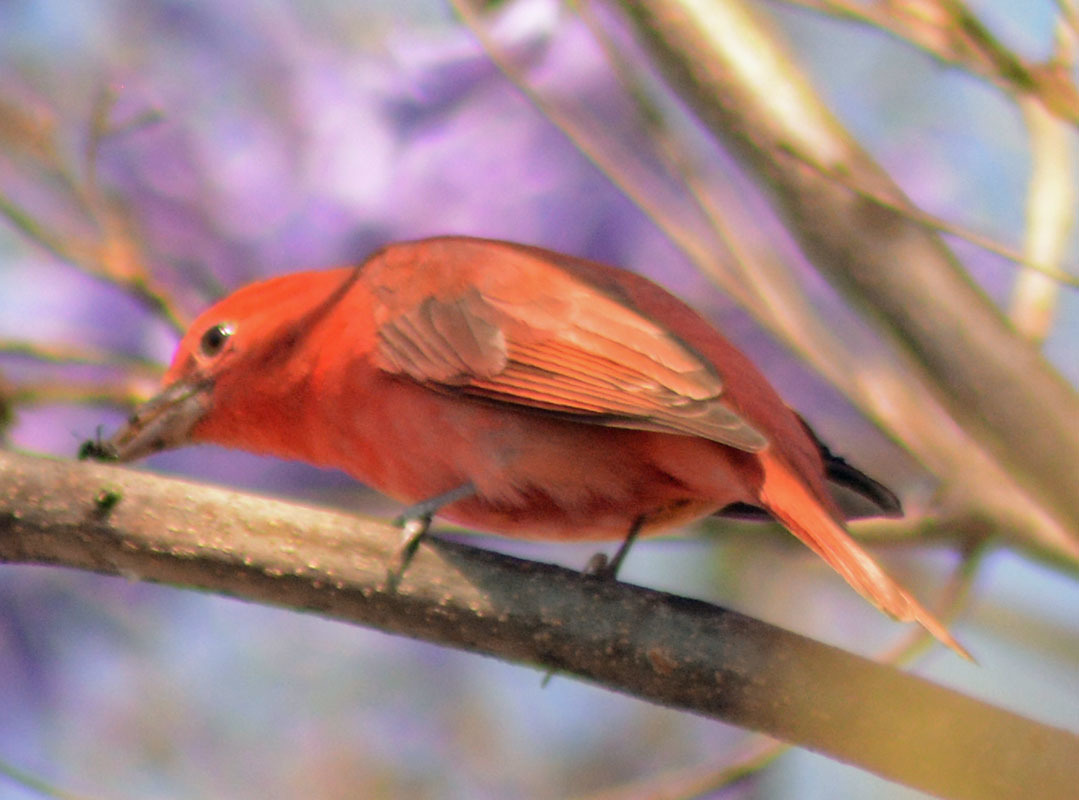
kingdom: Animalia
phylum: Chordata
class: Aves
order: Passeriformes
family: Cardinalidae
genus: Piranga
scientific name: Piranga rubra
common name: Summer tanager
